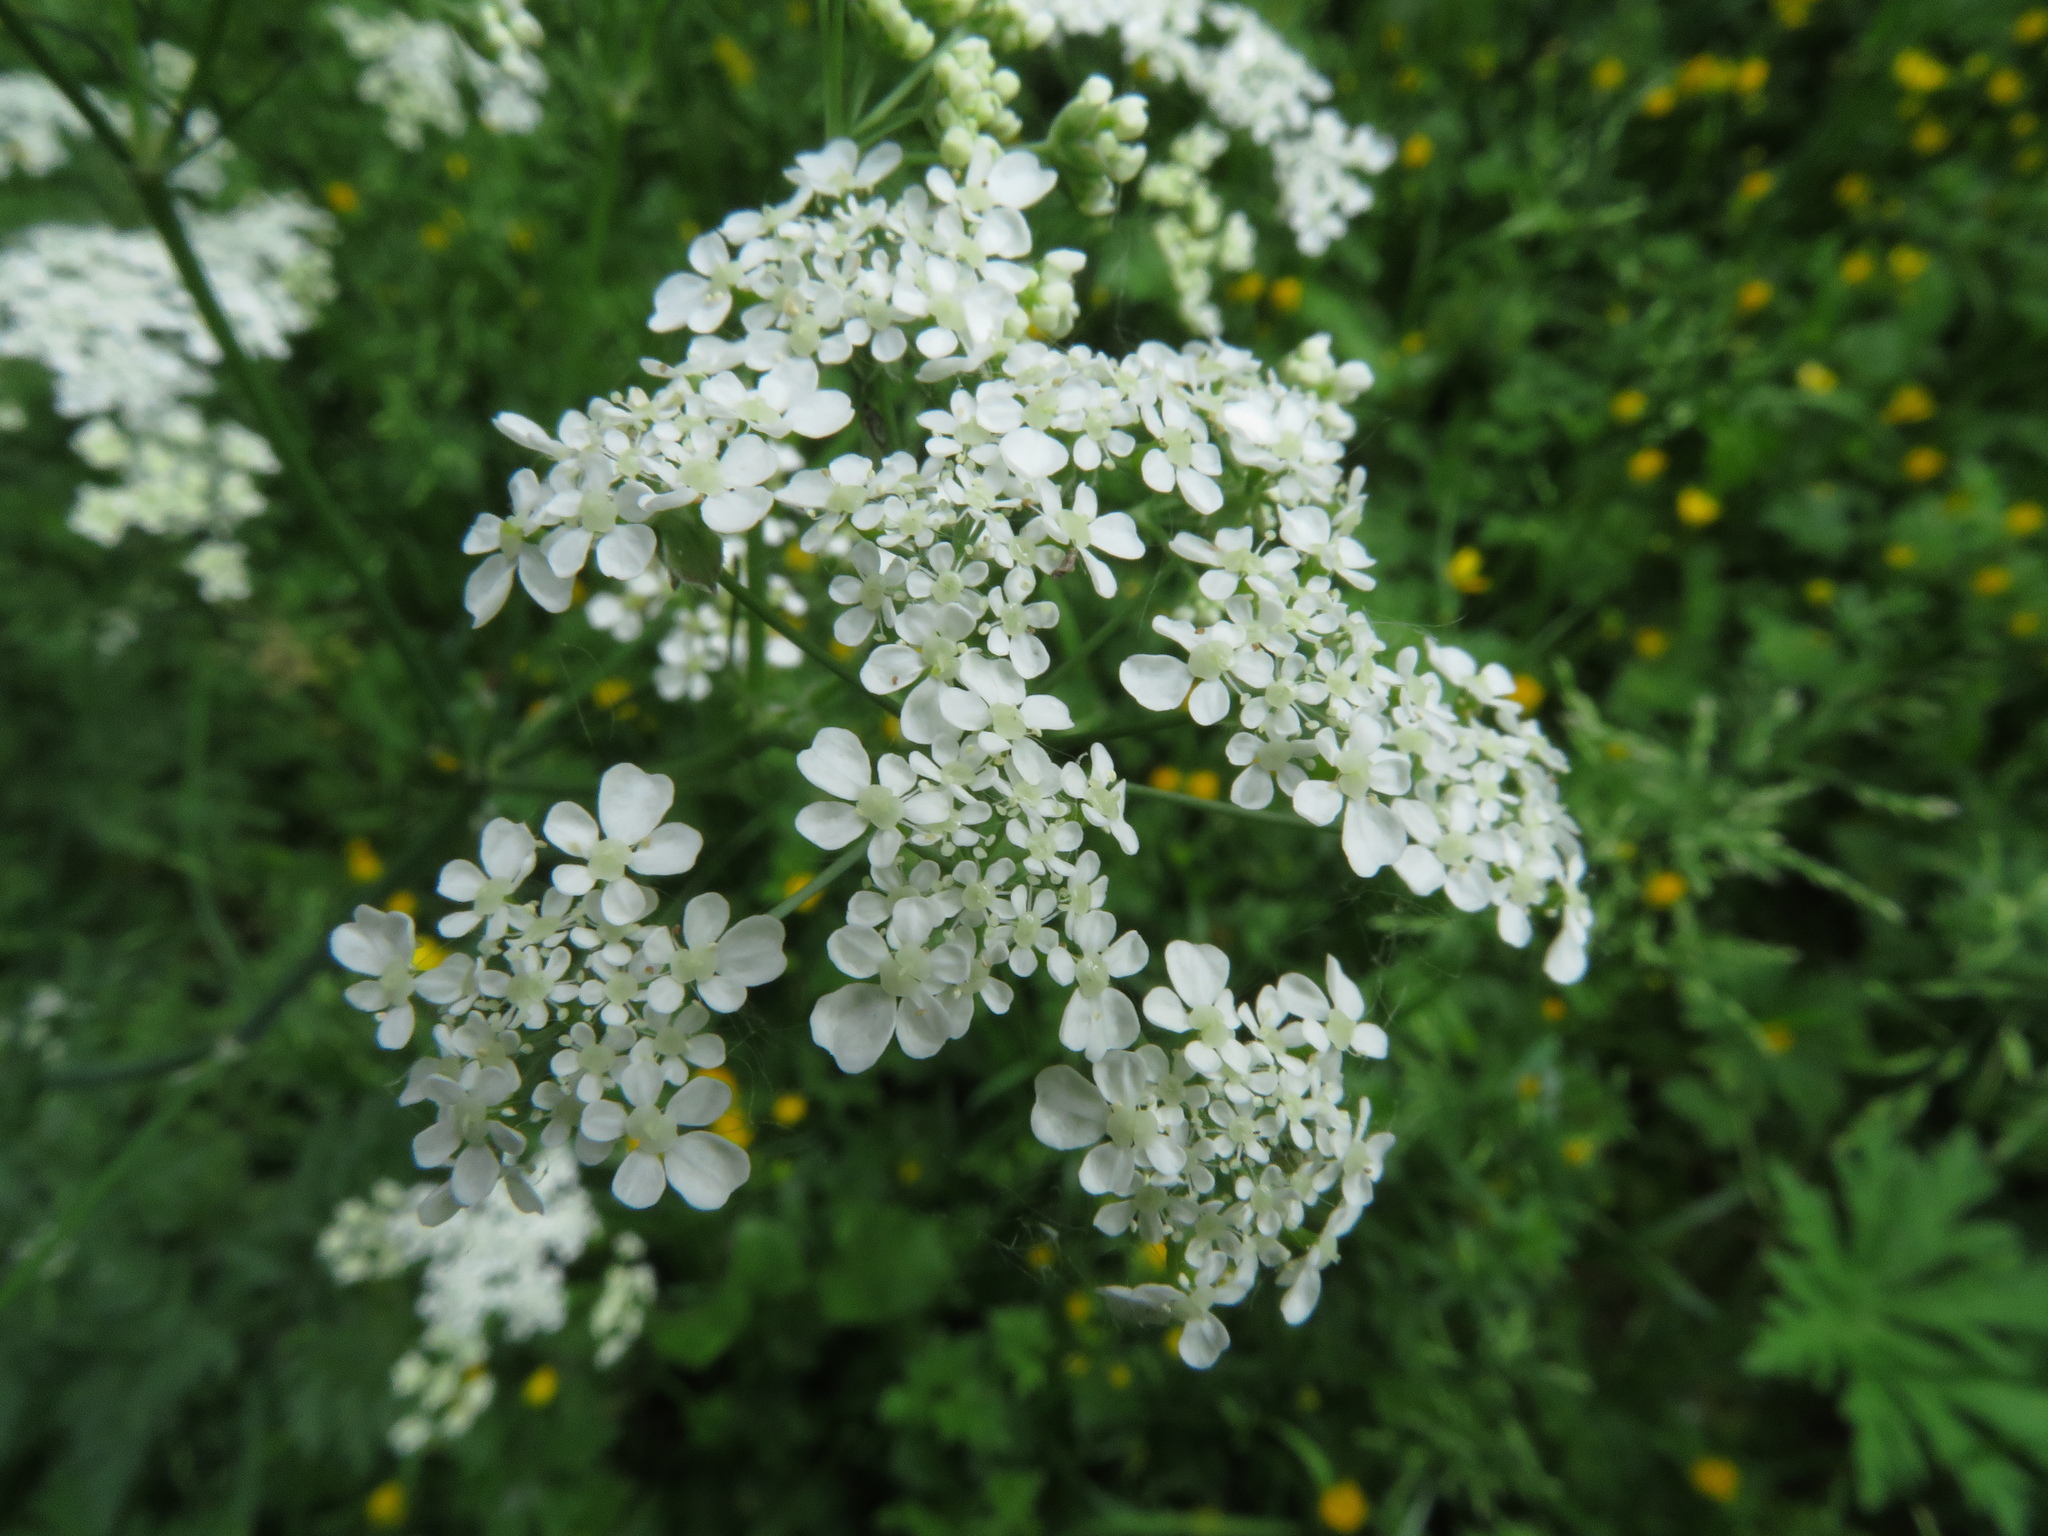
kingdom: Plantae
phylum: Tracheophyta
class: Magnoliopsida
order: Apiales
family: Apiaceae
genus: Anthriscus
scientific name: Anthriscus sylvestris
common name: Cow parsley
